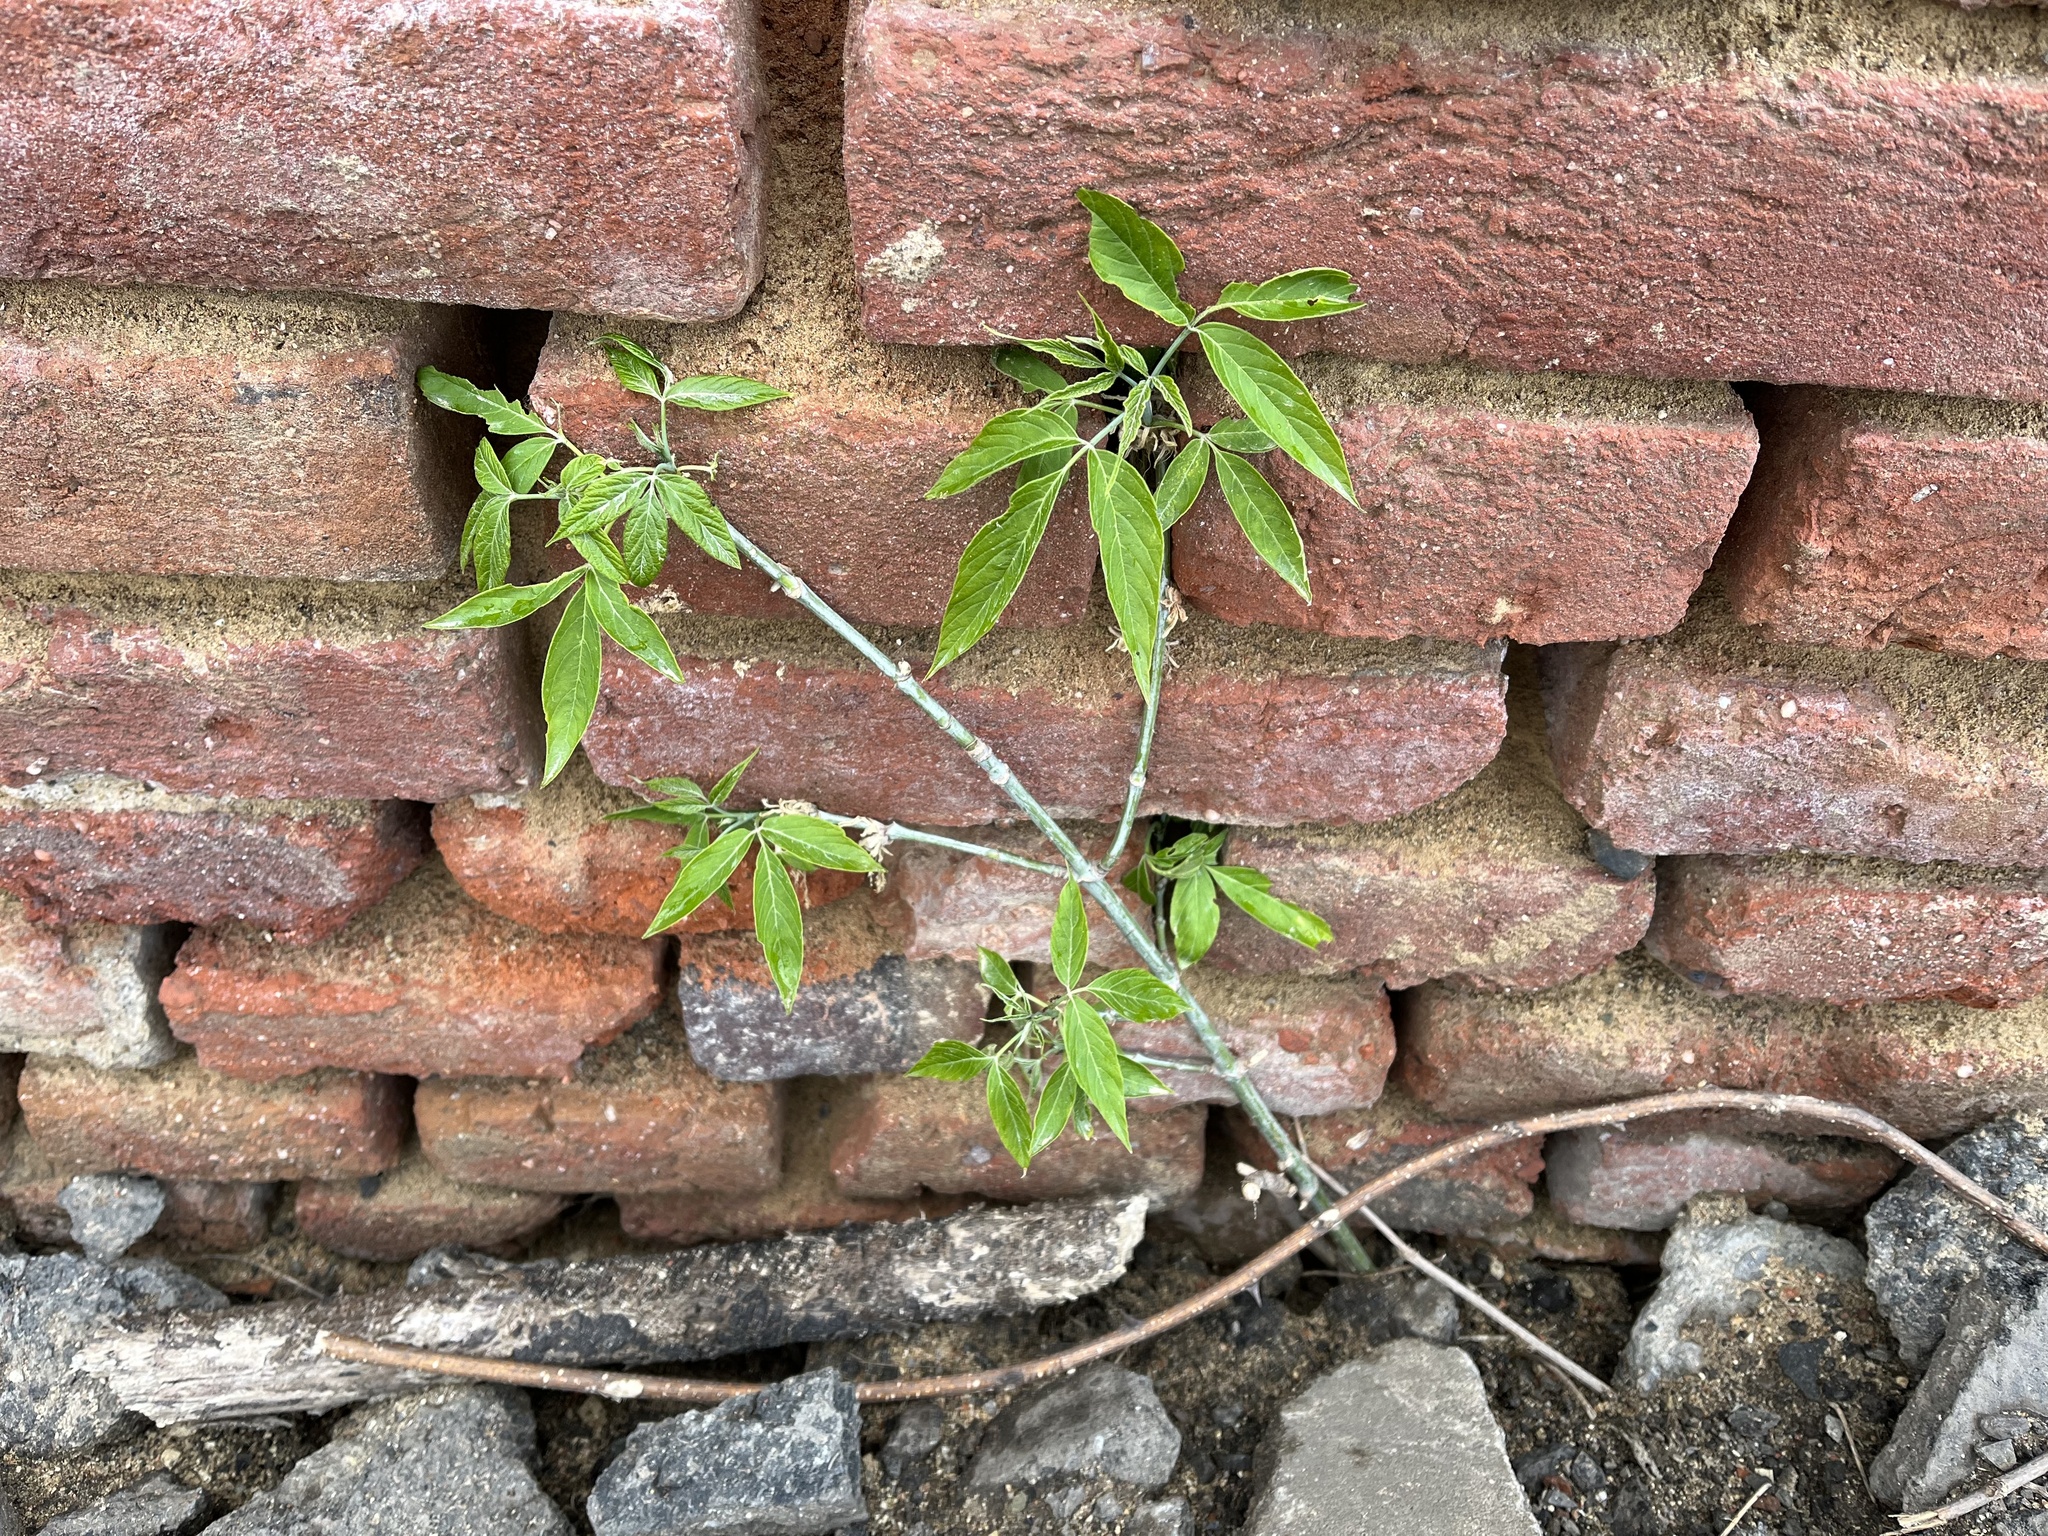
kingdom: Plantae
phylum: Tracheophyta
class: Magnoliopsida
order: Sapindales
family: Sapindaceae
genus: Acer
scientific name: Acer negundo
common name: Ashleaf maple
